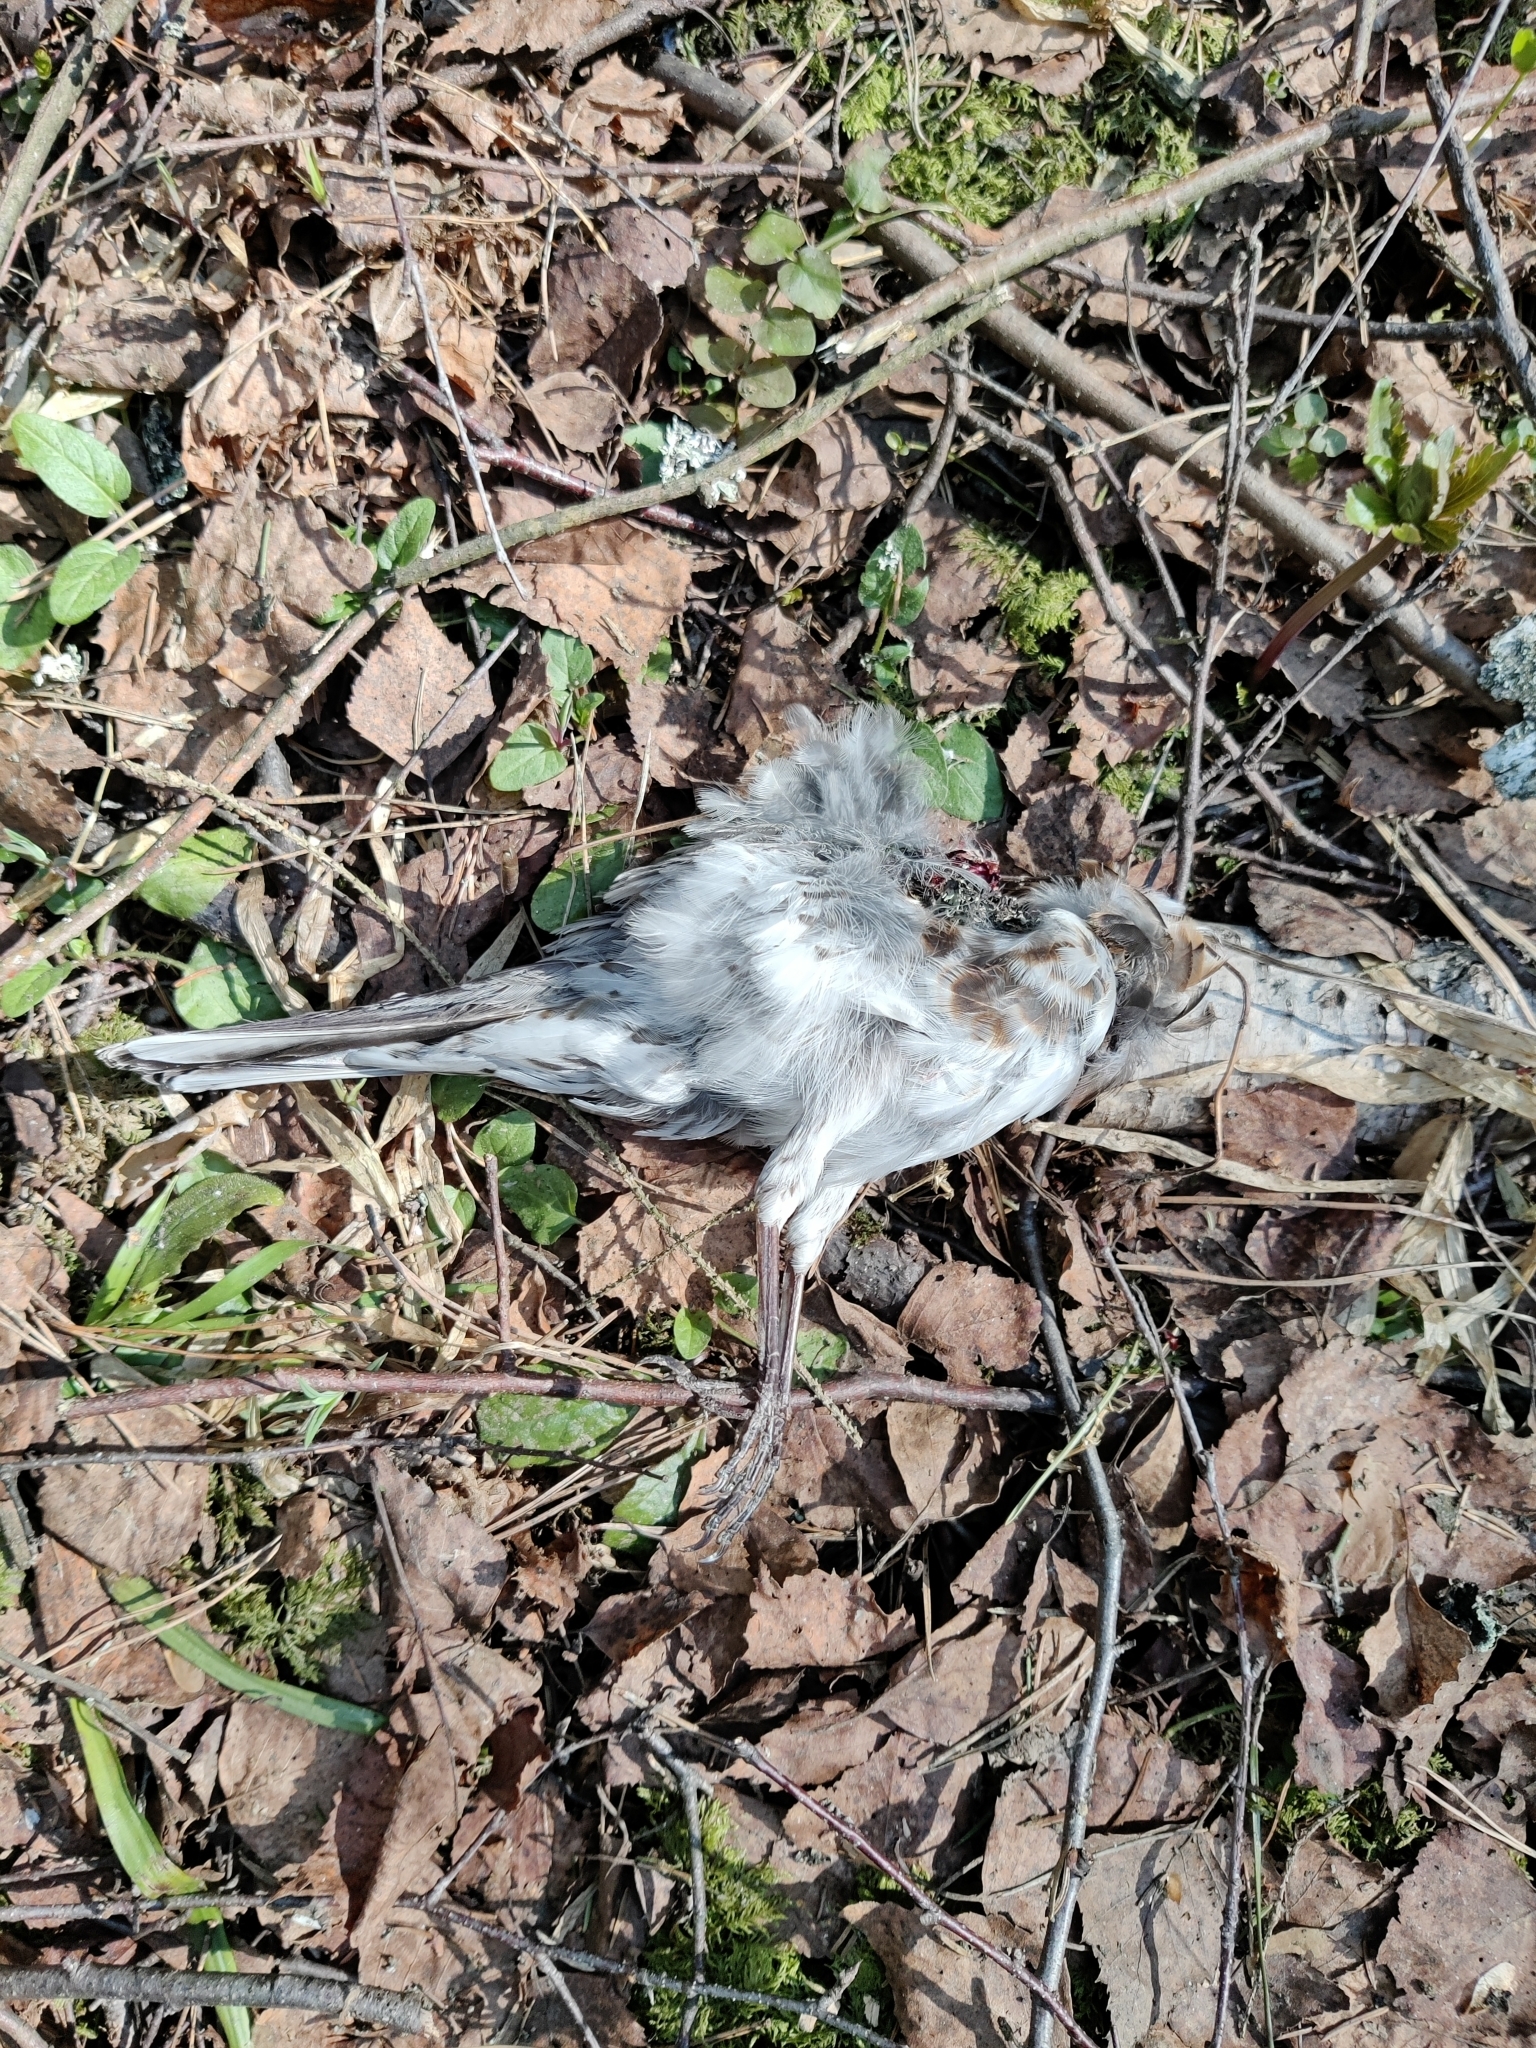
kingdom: Animalia
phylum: Chordata
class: Aves
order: Passeriformes
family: Turdidae
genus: Turdus
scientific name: Turdus pilaris
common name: Fieldfare
